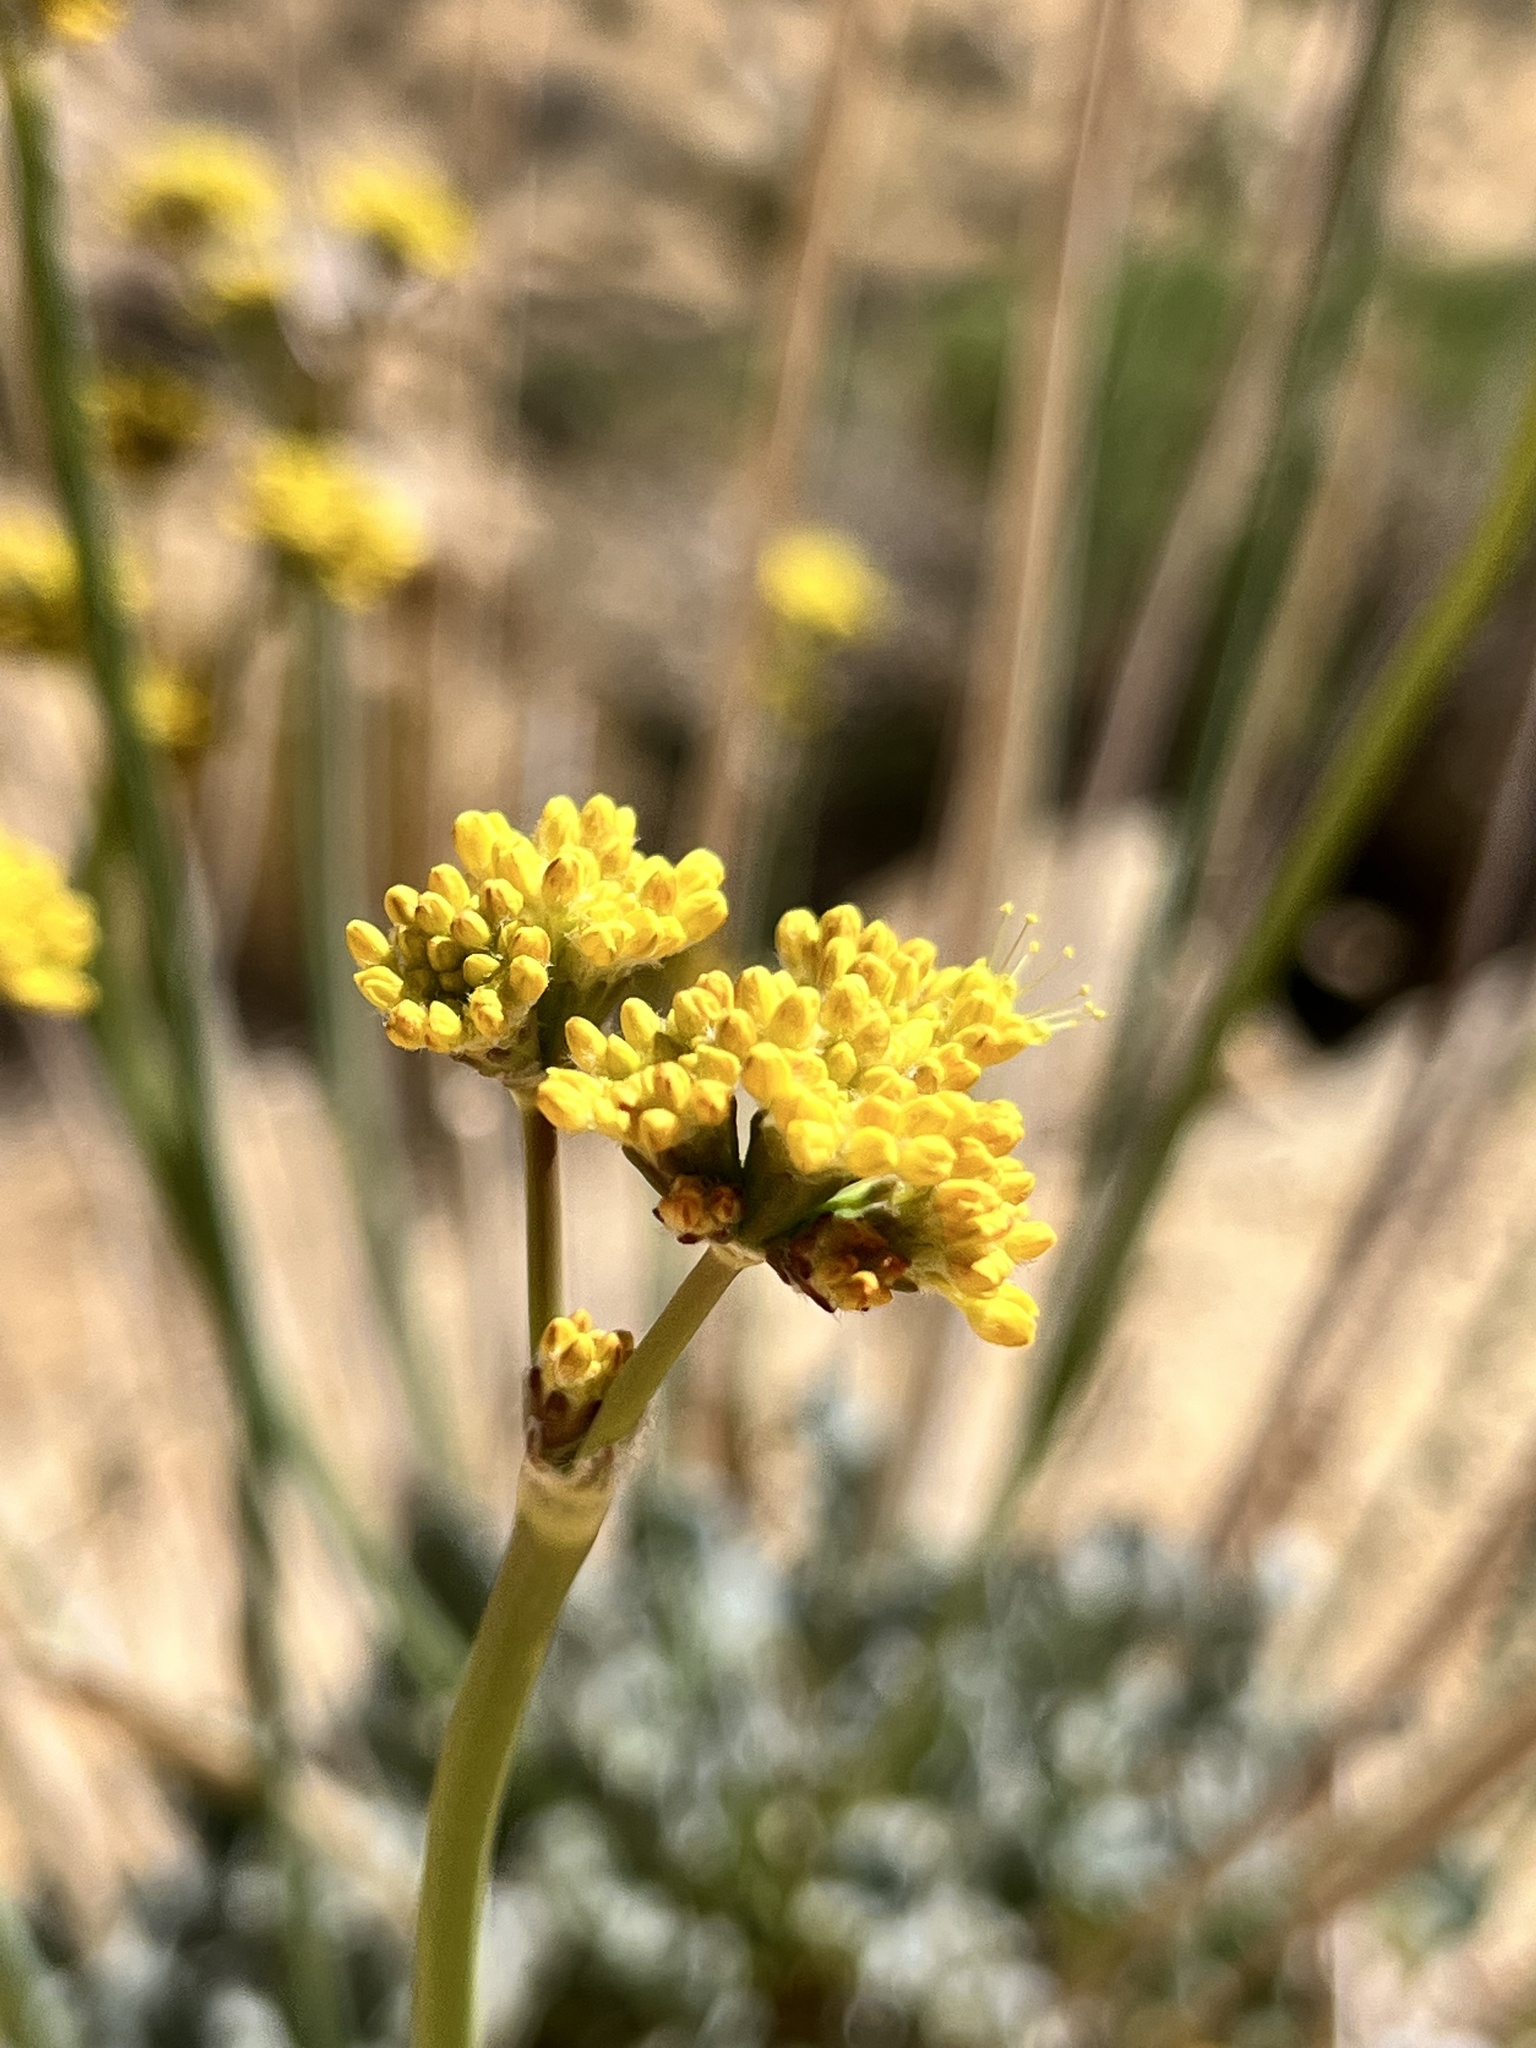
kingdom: Plantae
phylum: Tracheophyta
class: Magnoliopsida
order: Caryophyllales
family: Polygonaceae
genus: Eriogonum
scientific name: Eriogonum nudum
